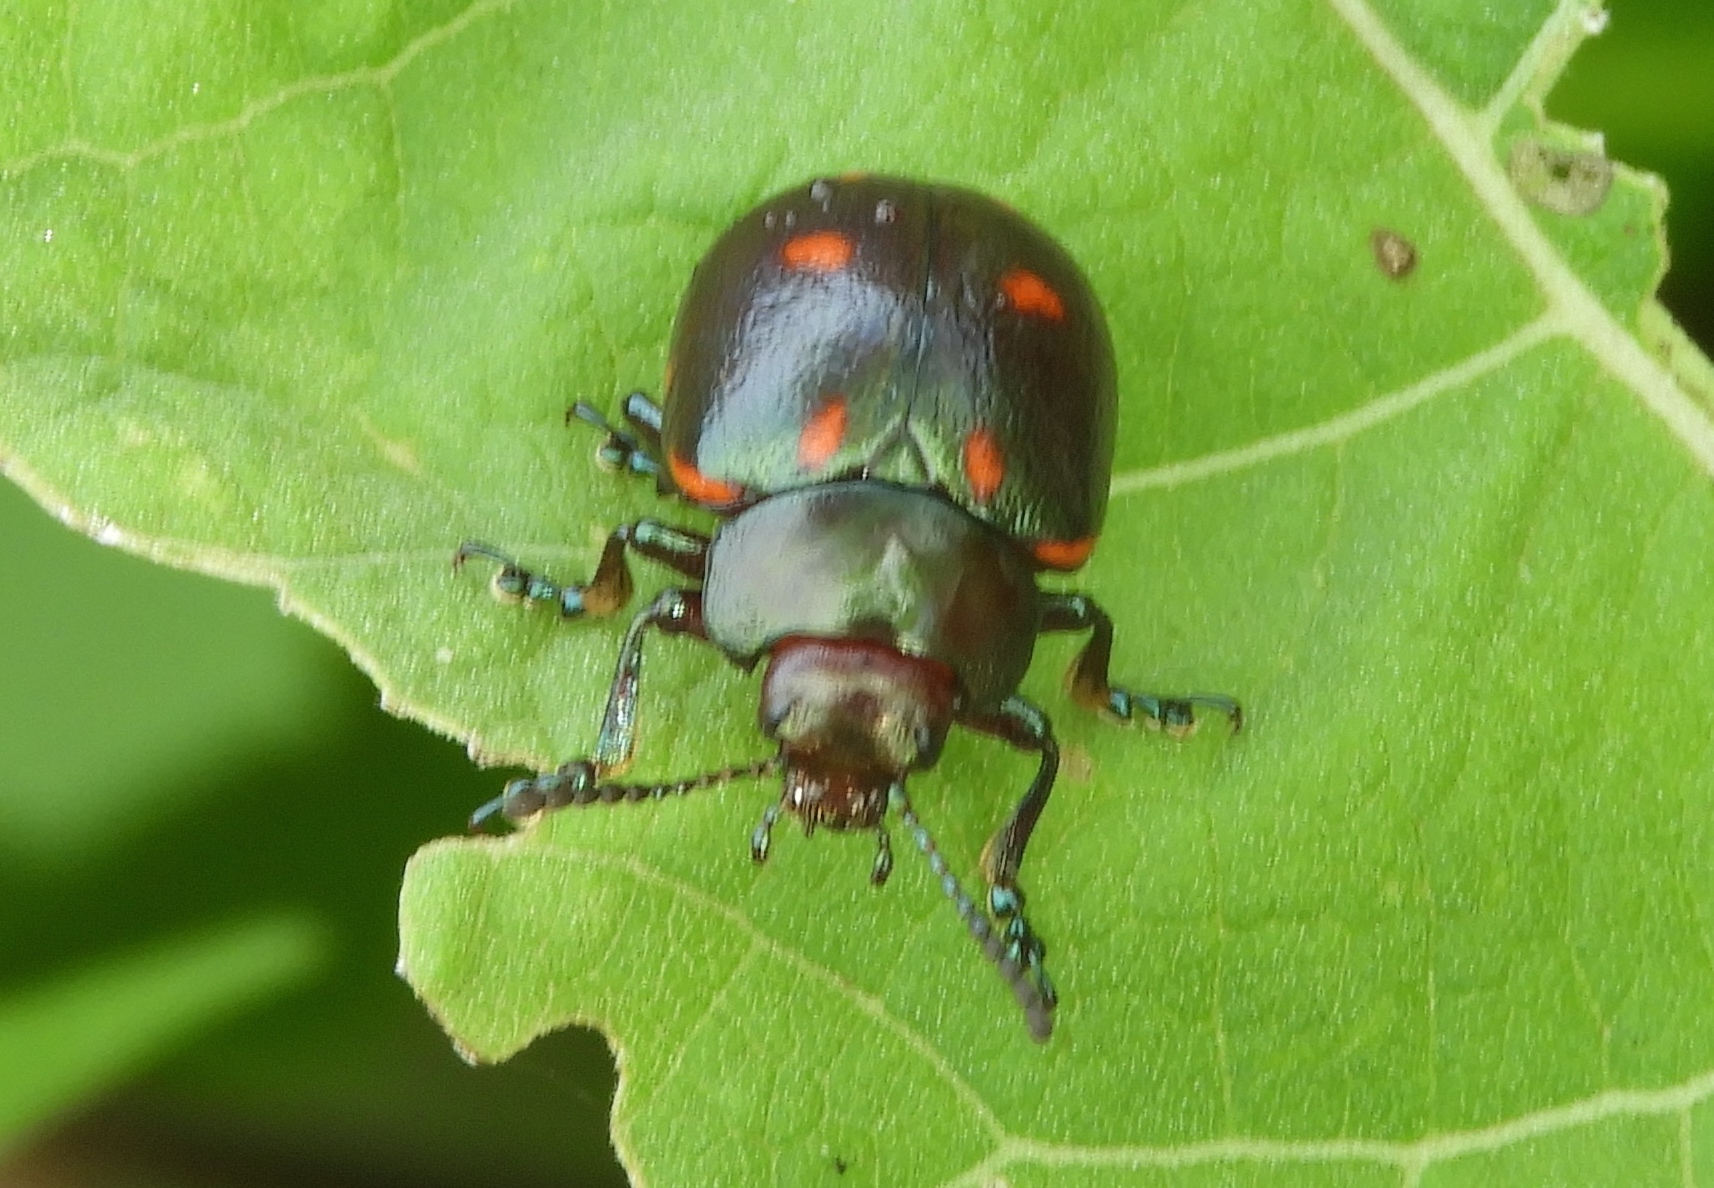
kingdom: Animalia
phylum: Arthropoda
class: Insecta
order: Coleoptera
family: Chrysomelidae
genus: Leptinotarsa
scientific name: Leptinotarsa behrensi
